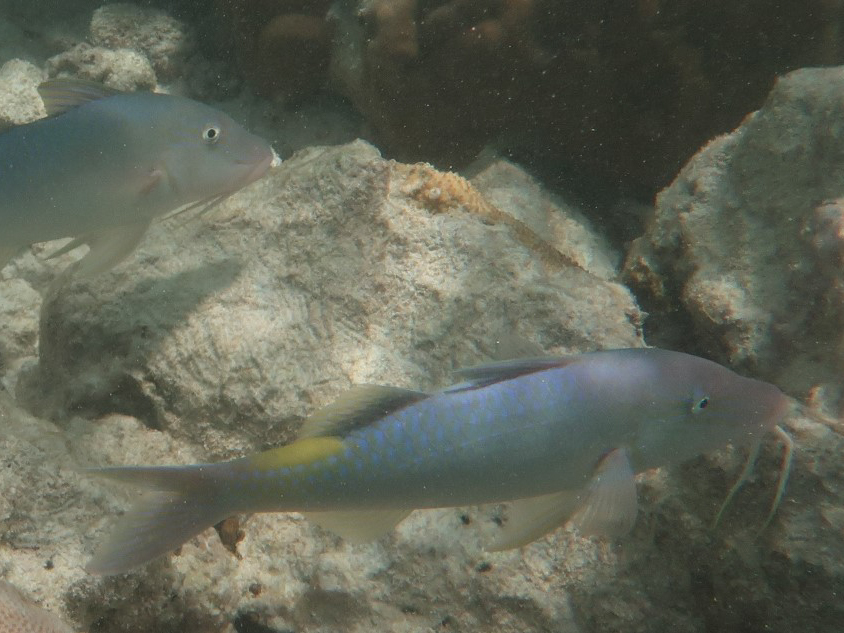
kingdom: Animalia
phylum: Chordata
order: Perciformes
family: Mullidae
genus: Parupeneus
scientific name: Parupeneus cyclostomus
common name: Goldsaddle goatfish
